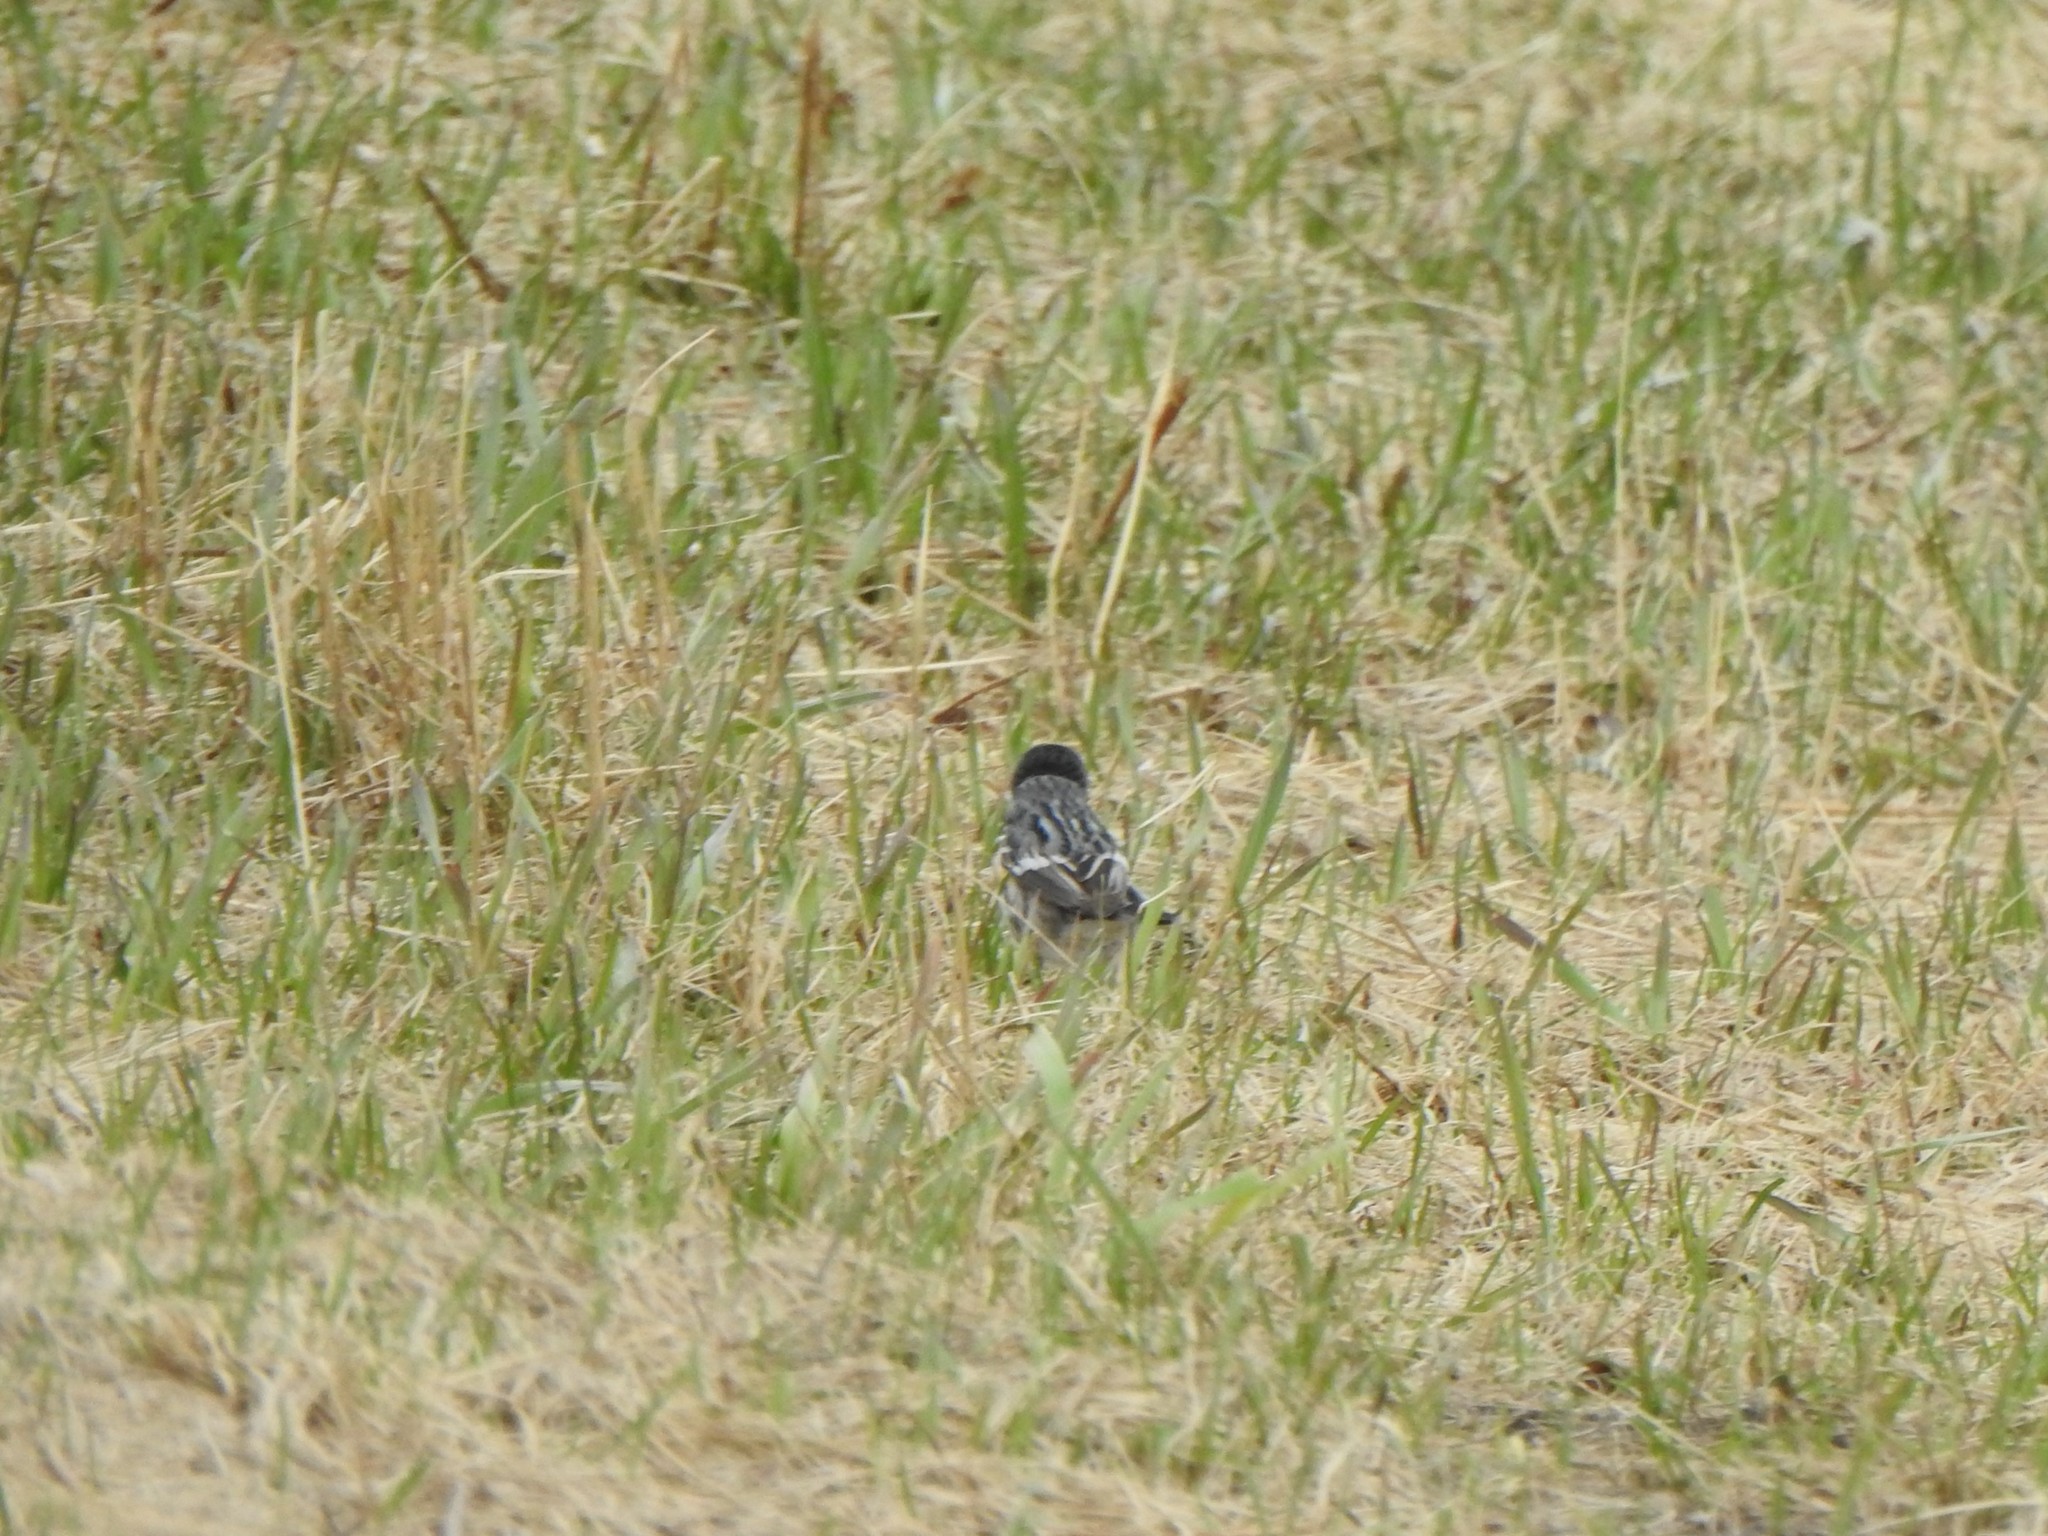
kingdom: Animalia
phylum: Chordata
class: Aves
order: Passeriformes
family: Parulidae
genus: Setophaga
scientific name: Setophaga coronata
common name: Myrtle warbler
